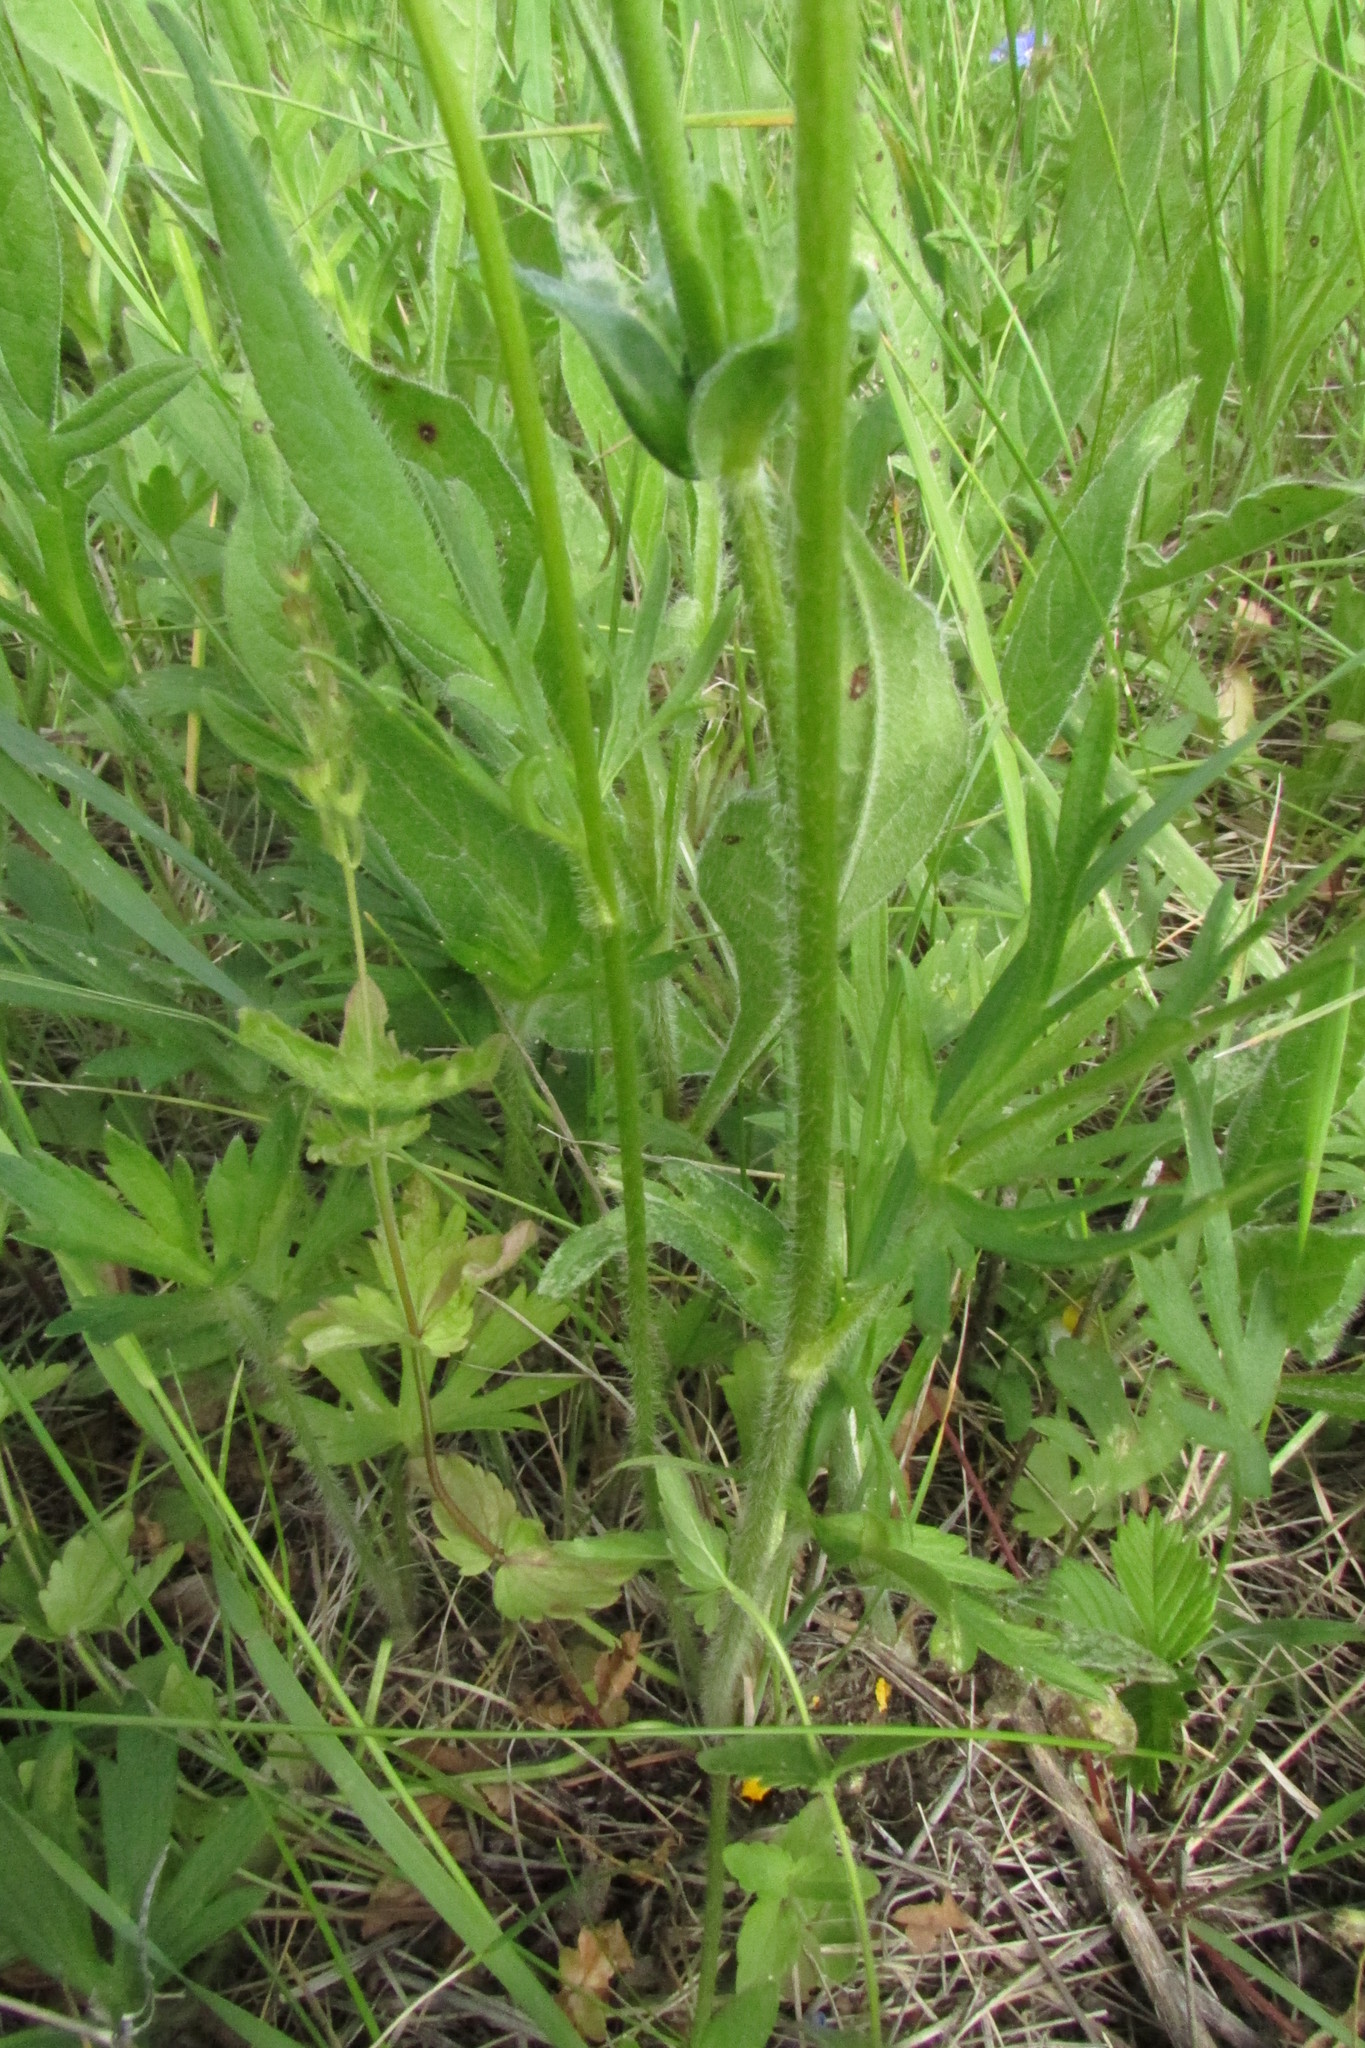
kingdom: Plantae
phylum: Tracheophyta
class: Magnoliopsida
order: Ranunculales
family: Ranunculaceae
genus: Ranunculus
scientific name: Ranunculus polyanthemos
